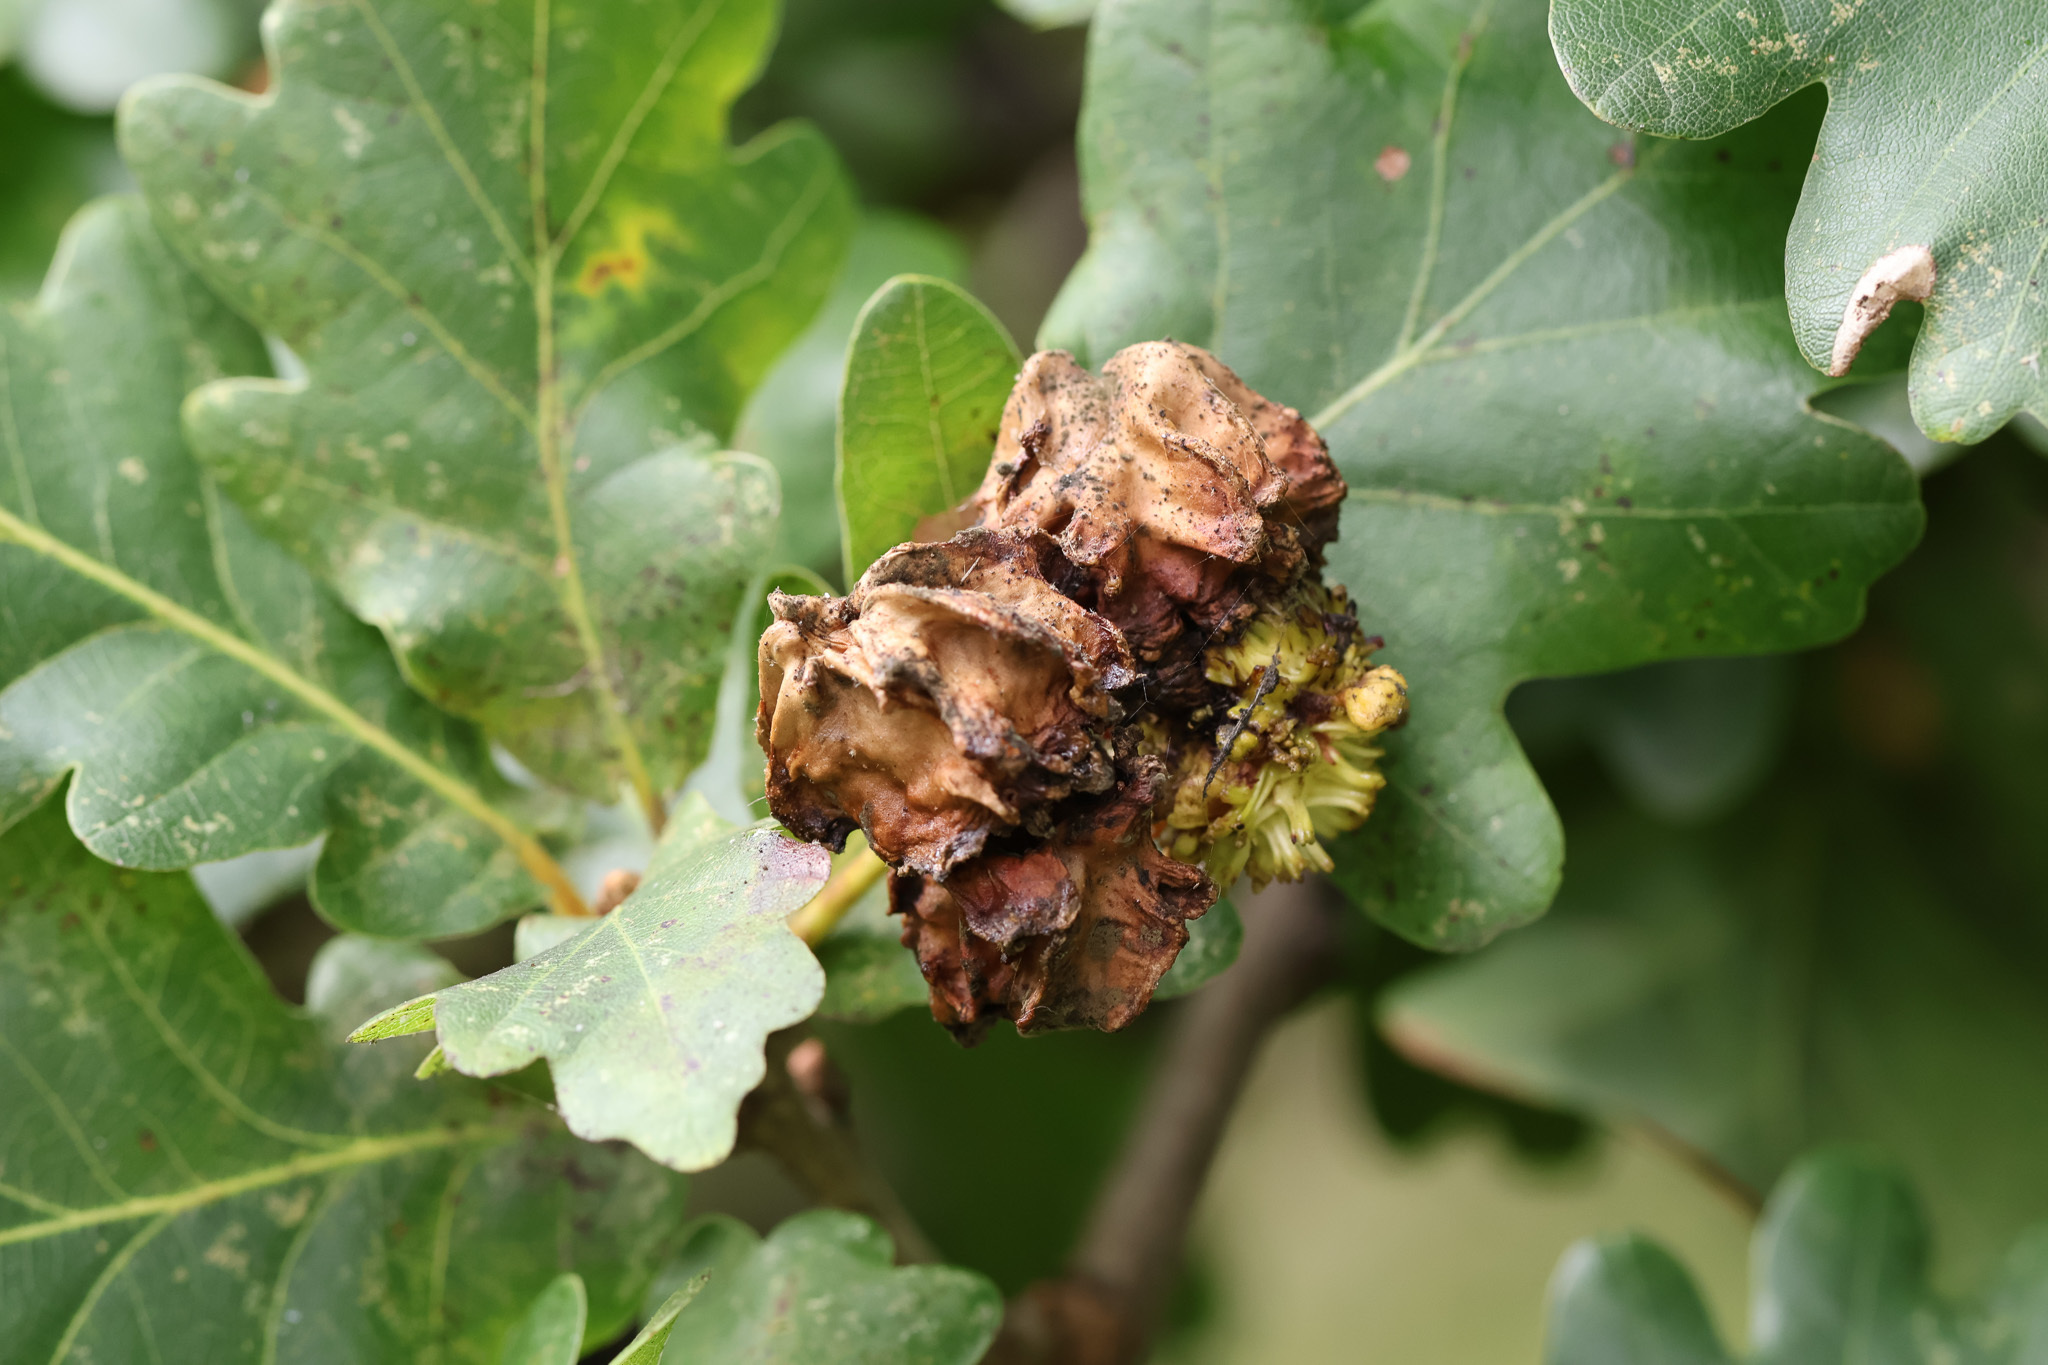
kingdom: Animalia
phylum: Arthropoda
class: Insecta
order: Hymenoptera
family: Cynipidae
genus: Andricus
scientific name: Andricus quercuscalicis
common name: Knopper gall
